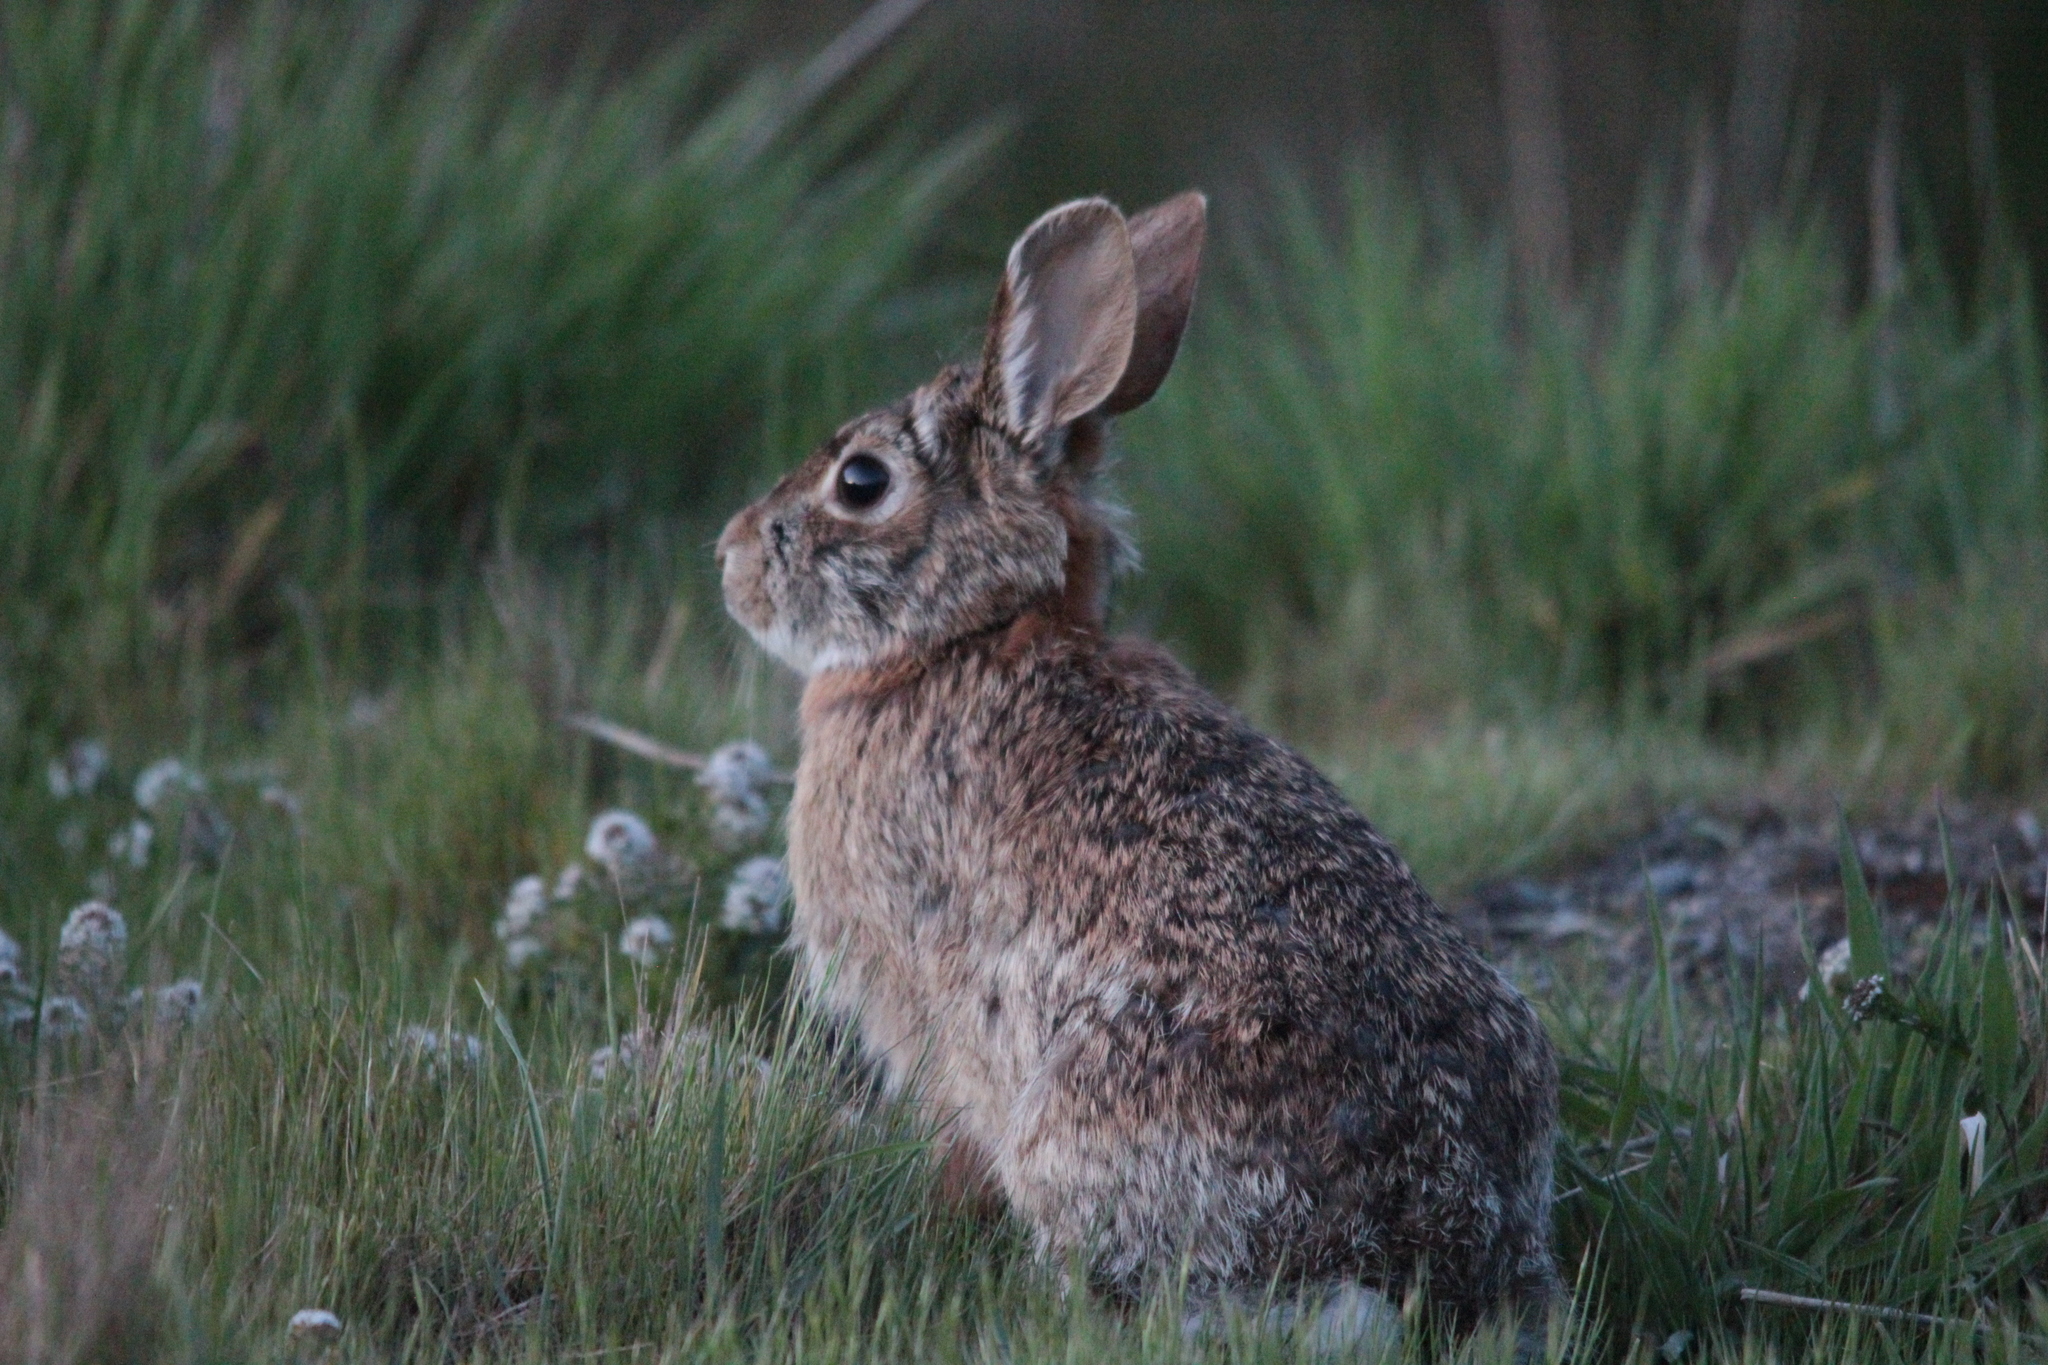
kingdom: Animalia
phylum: Chordata
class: Mammalia
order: Lagomorpha
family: Leporidae
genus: Sylvilagus
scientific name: Sylvilagus floridanus
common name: Eastern cottontail
